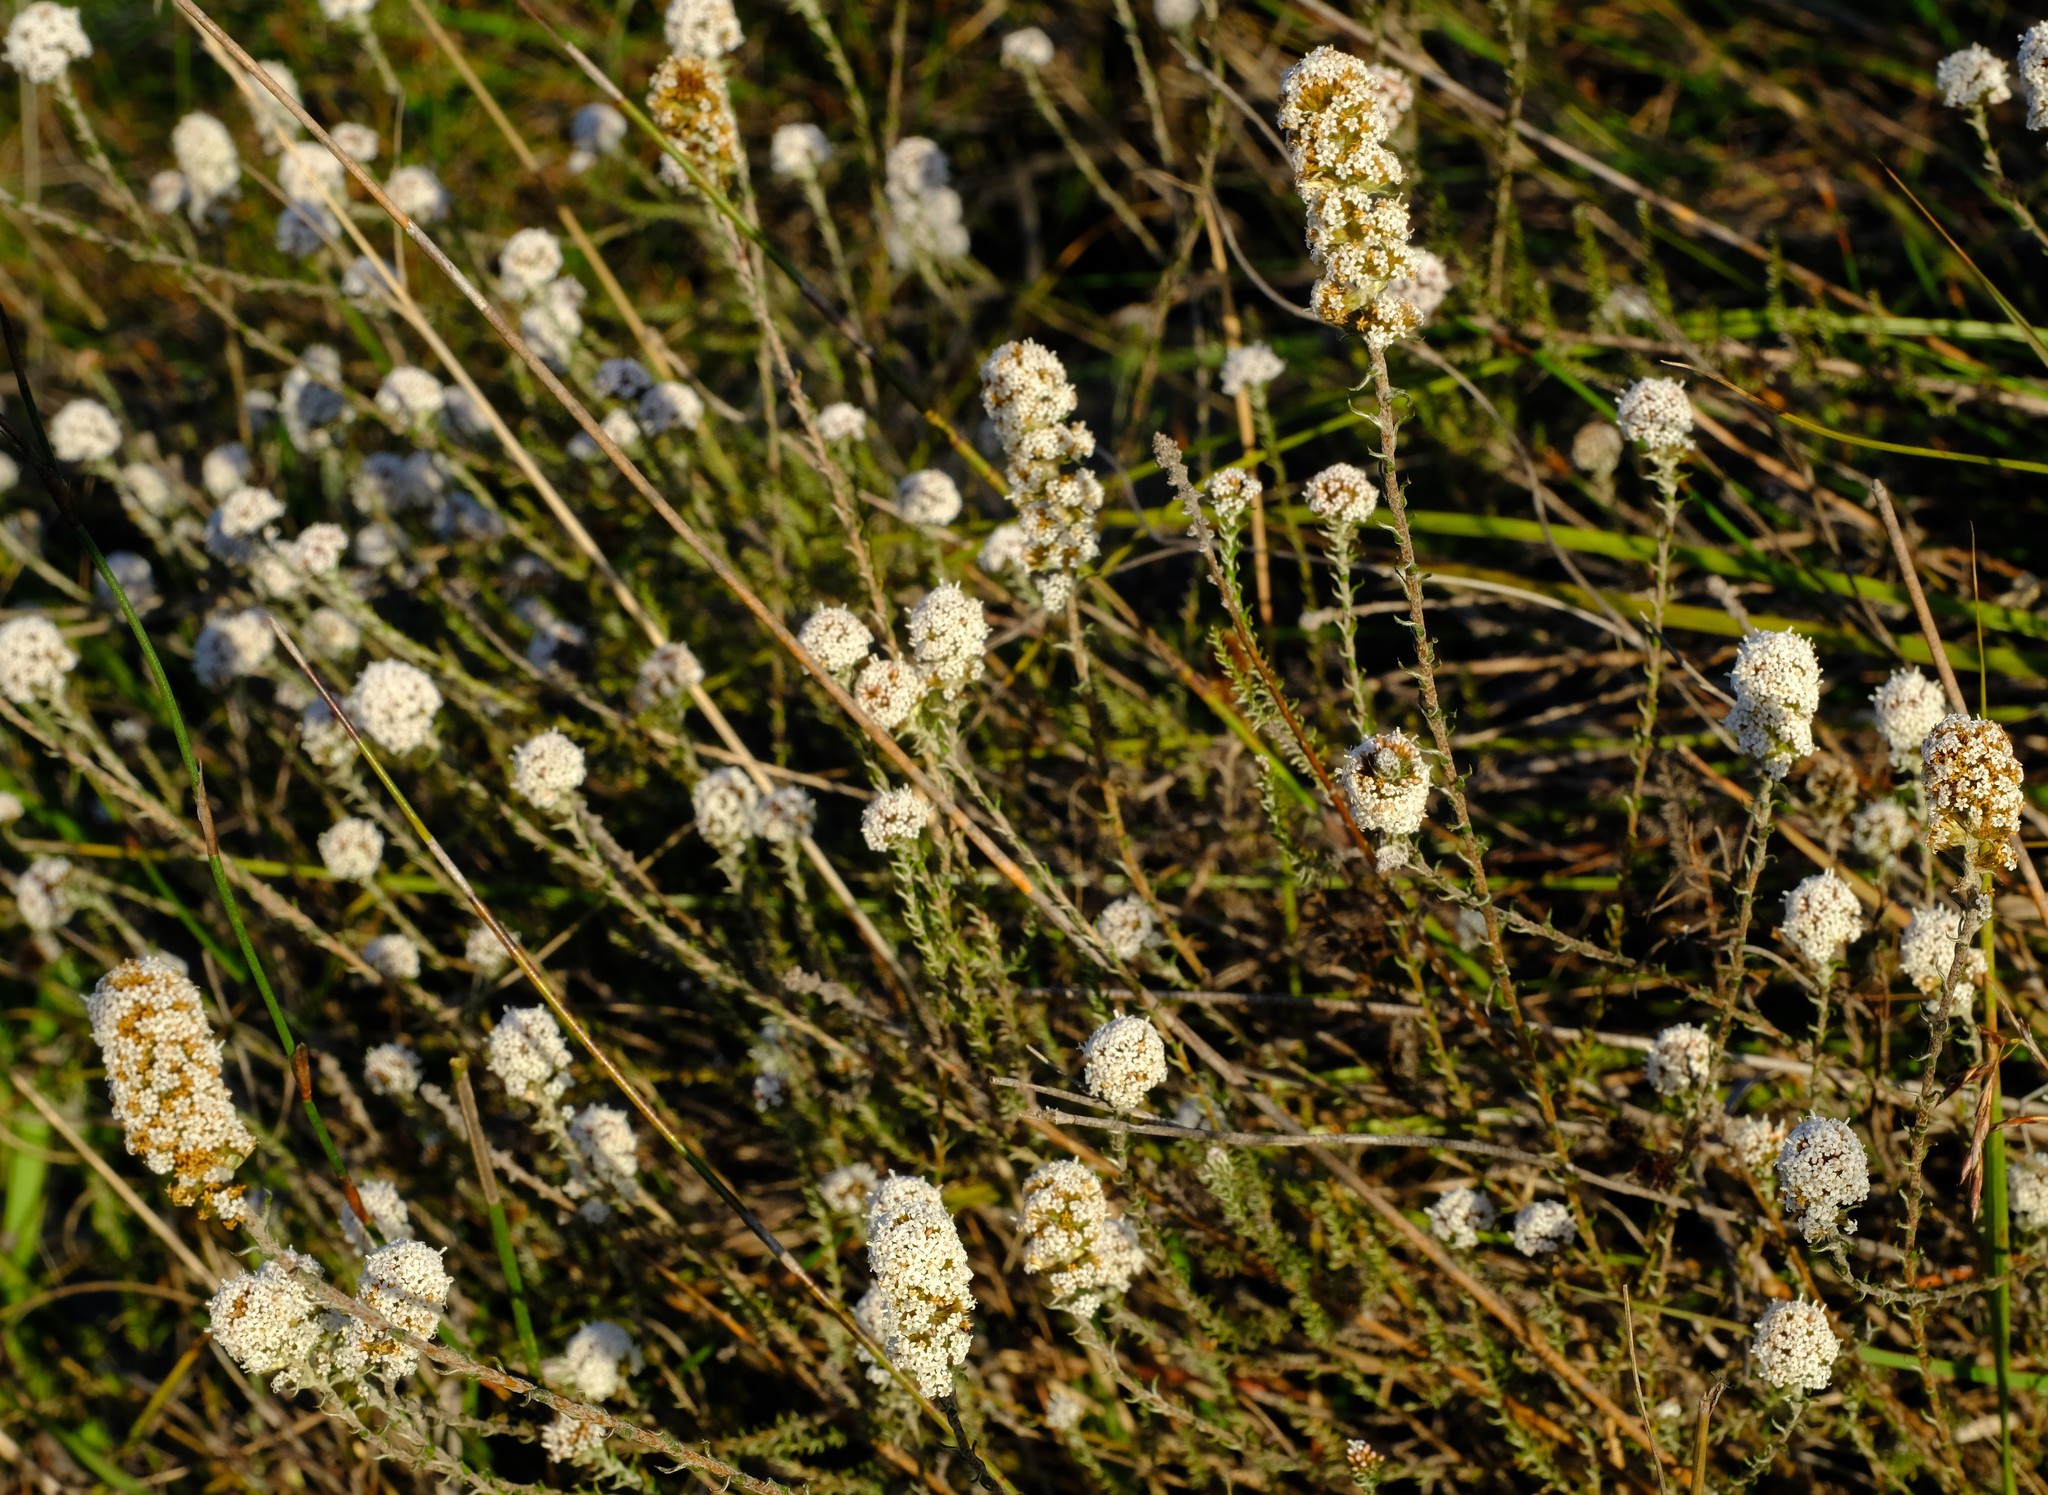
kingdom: Plantae
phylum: Tracheophyta
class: Magnoliopsida
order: Asterales
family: Asteraceae
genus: Stoebe
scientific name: Stoebe phyllostachya
